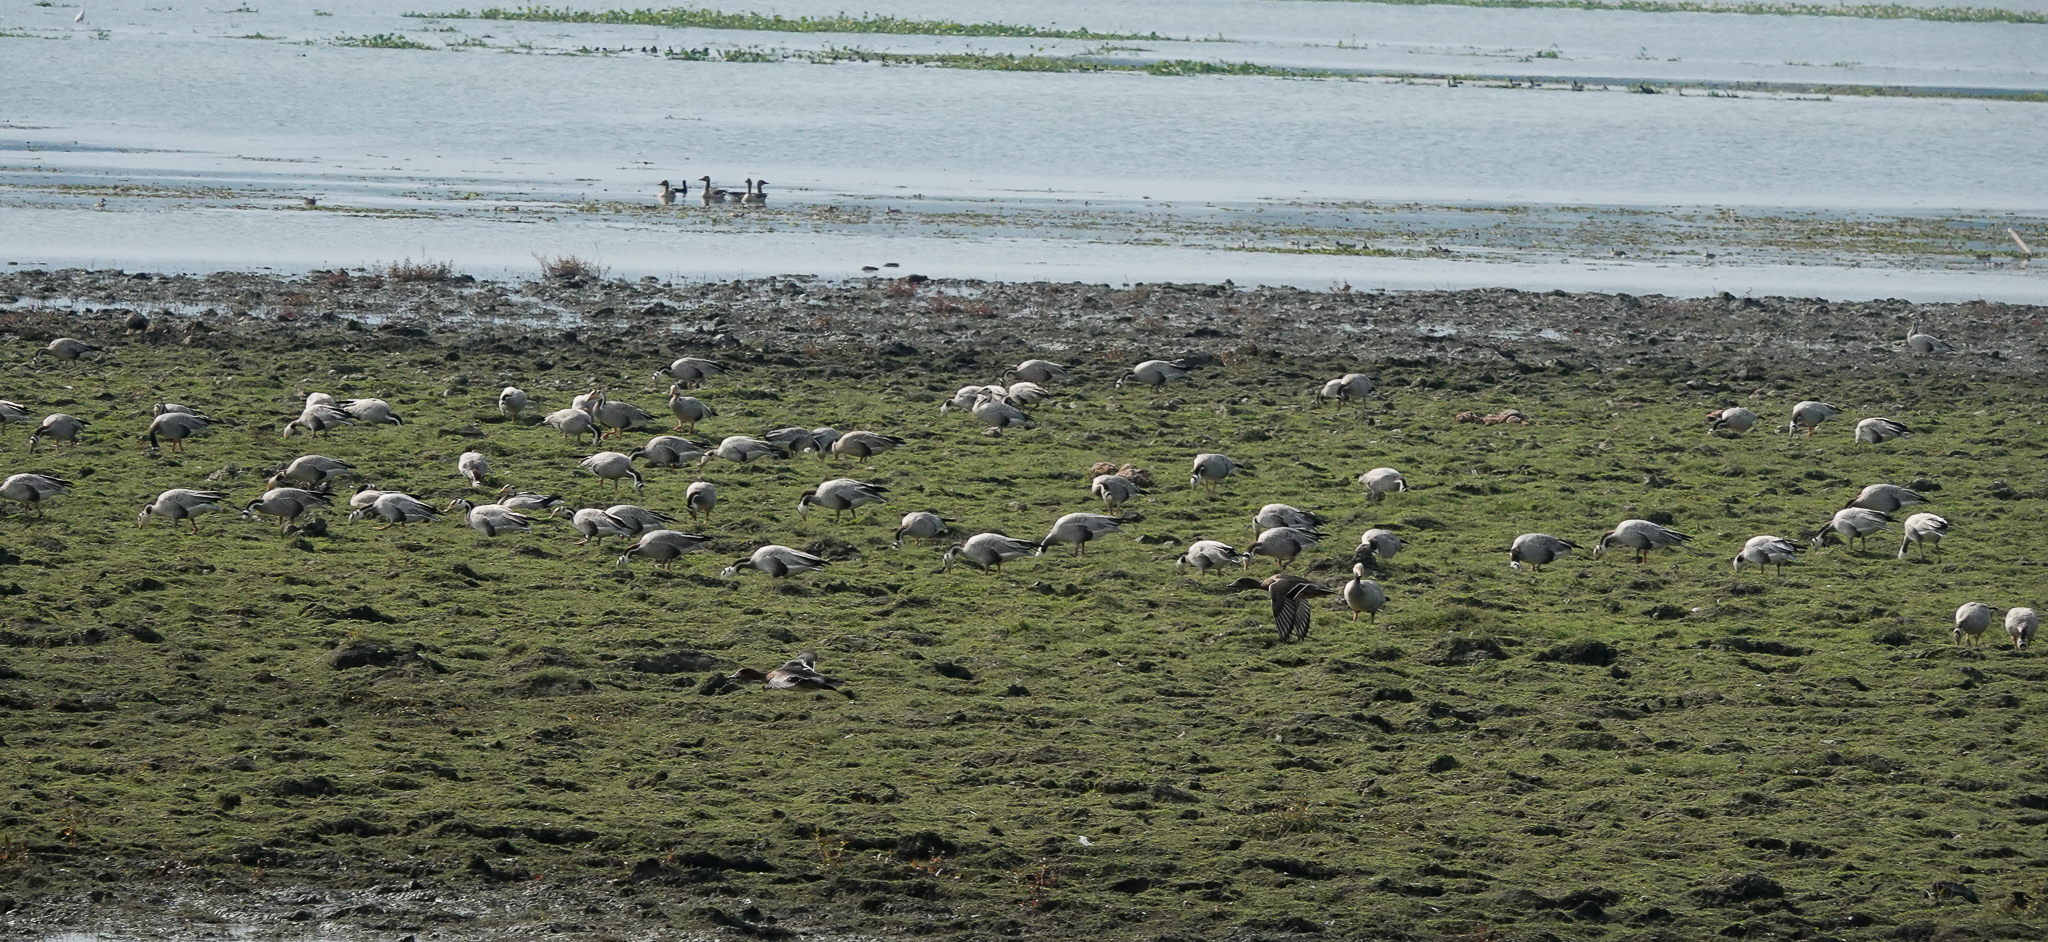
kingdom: Animalia
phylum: Chordata
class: Aves
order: Anseriformes
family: Anatidae
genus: Anser
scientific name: Anser indicus
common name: Bar-headed goose
